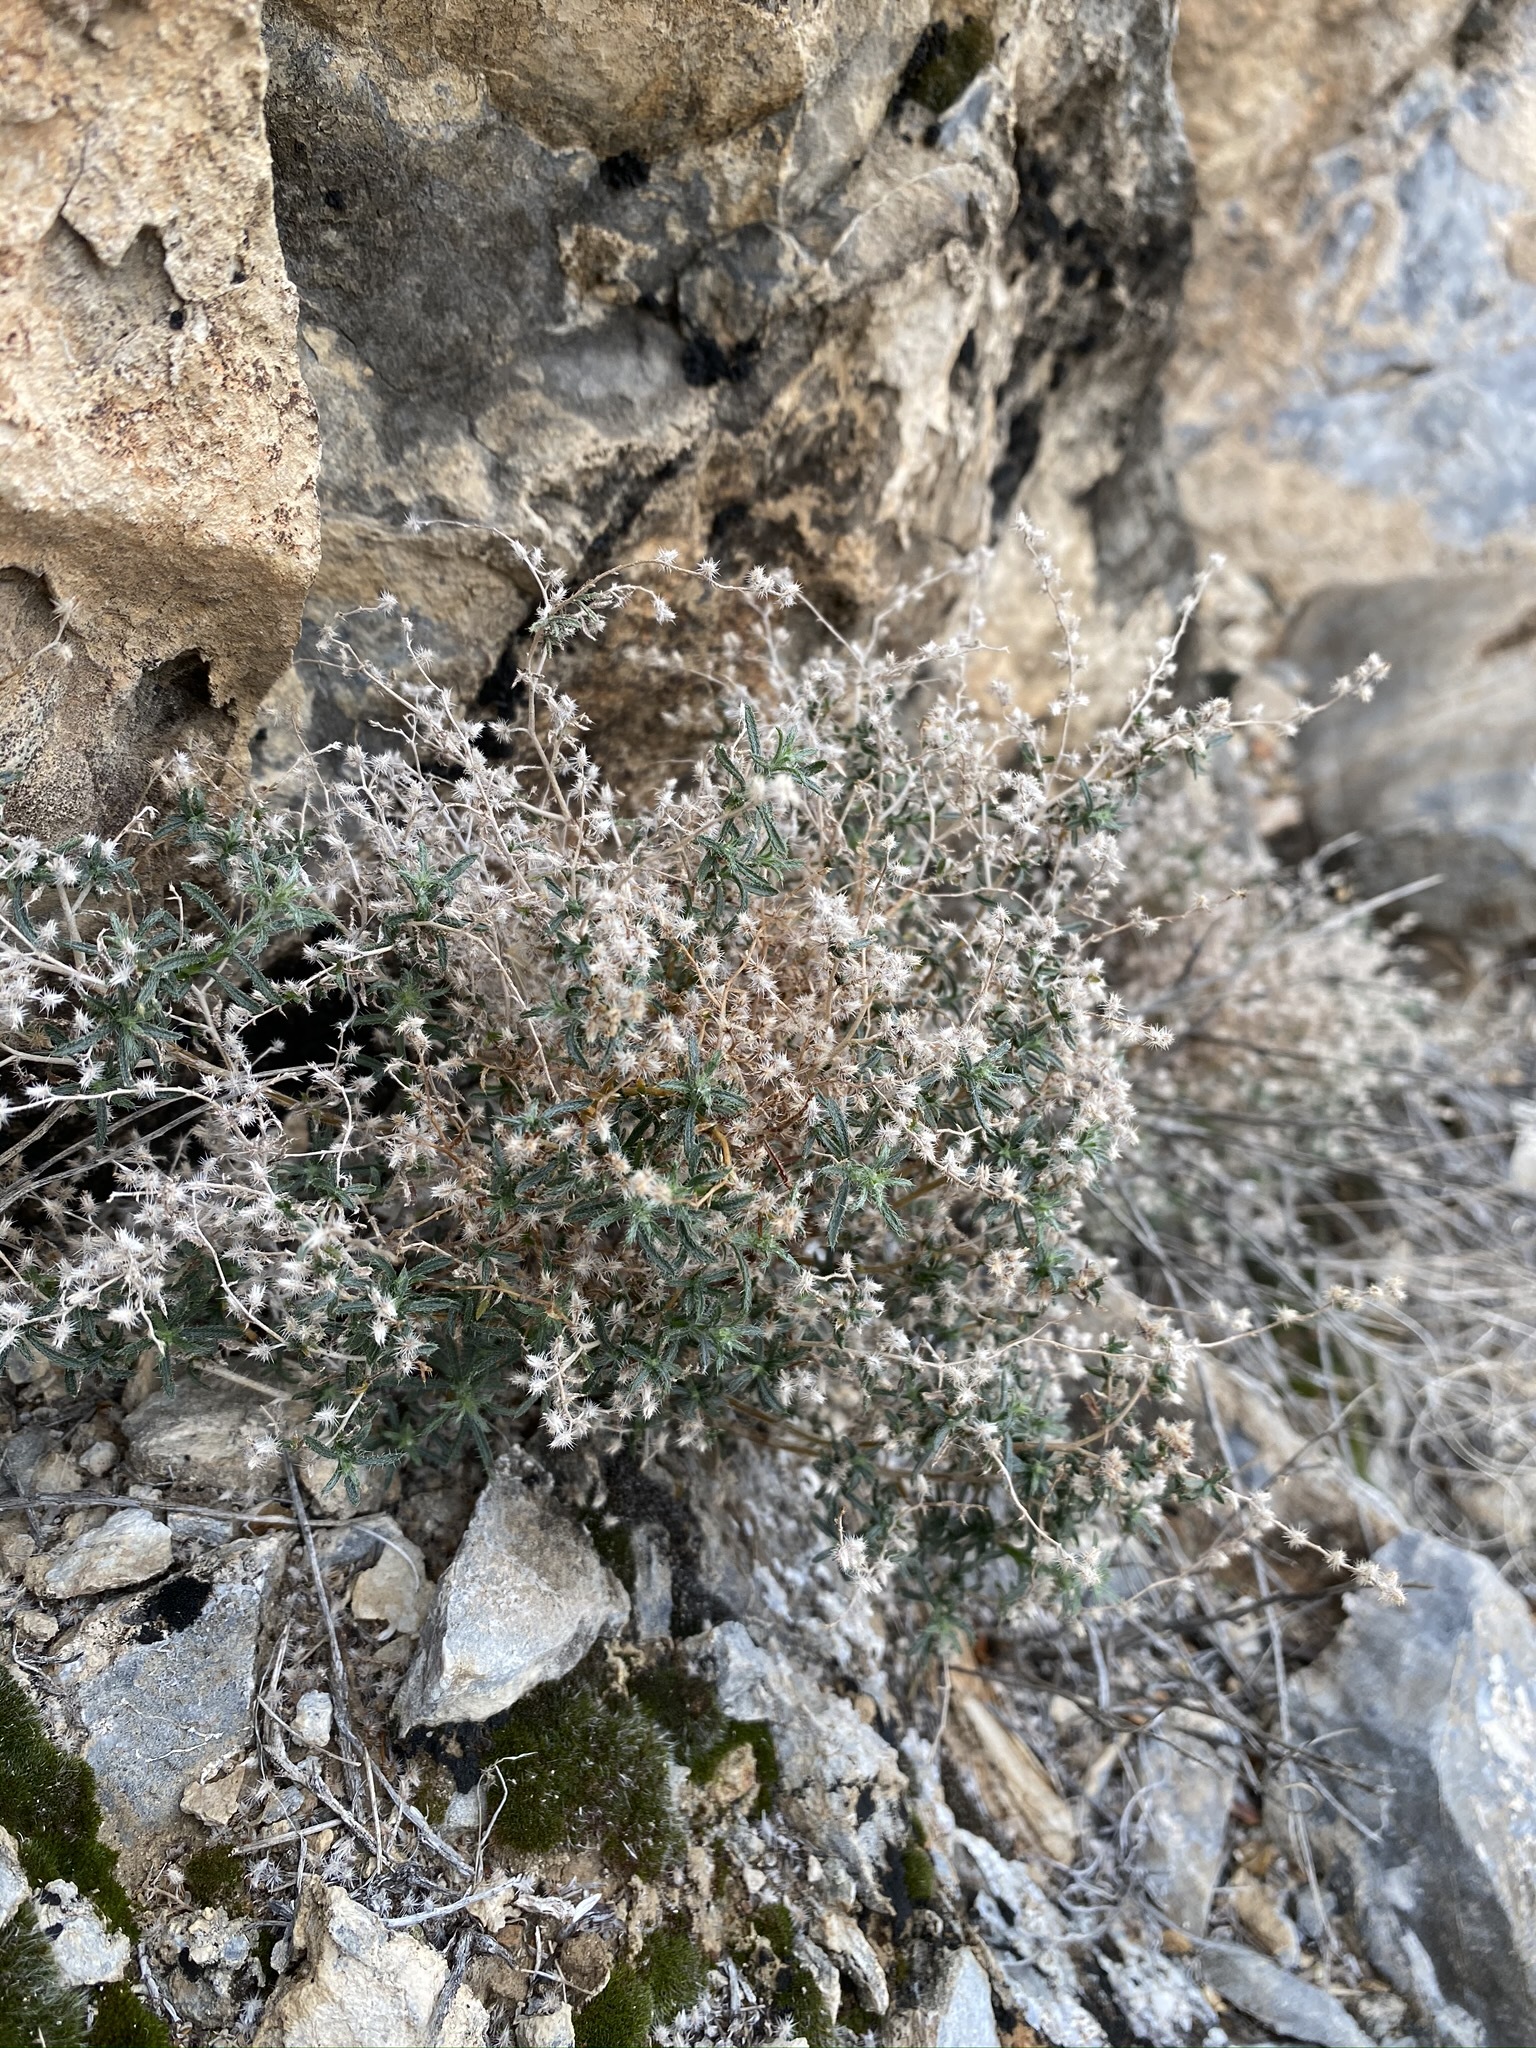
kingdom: Plantae
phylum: Tracheophyta
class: Magnoliopsida
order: Boraginales
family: Boraginaceae
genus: Johnstonella
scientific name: Johnstonella racemosa
